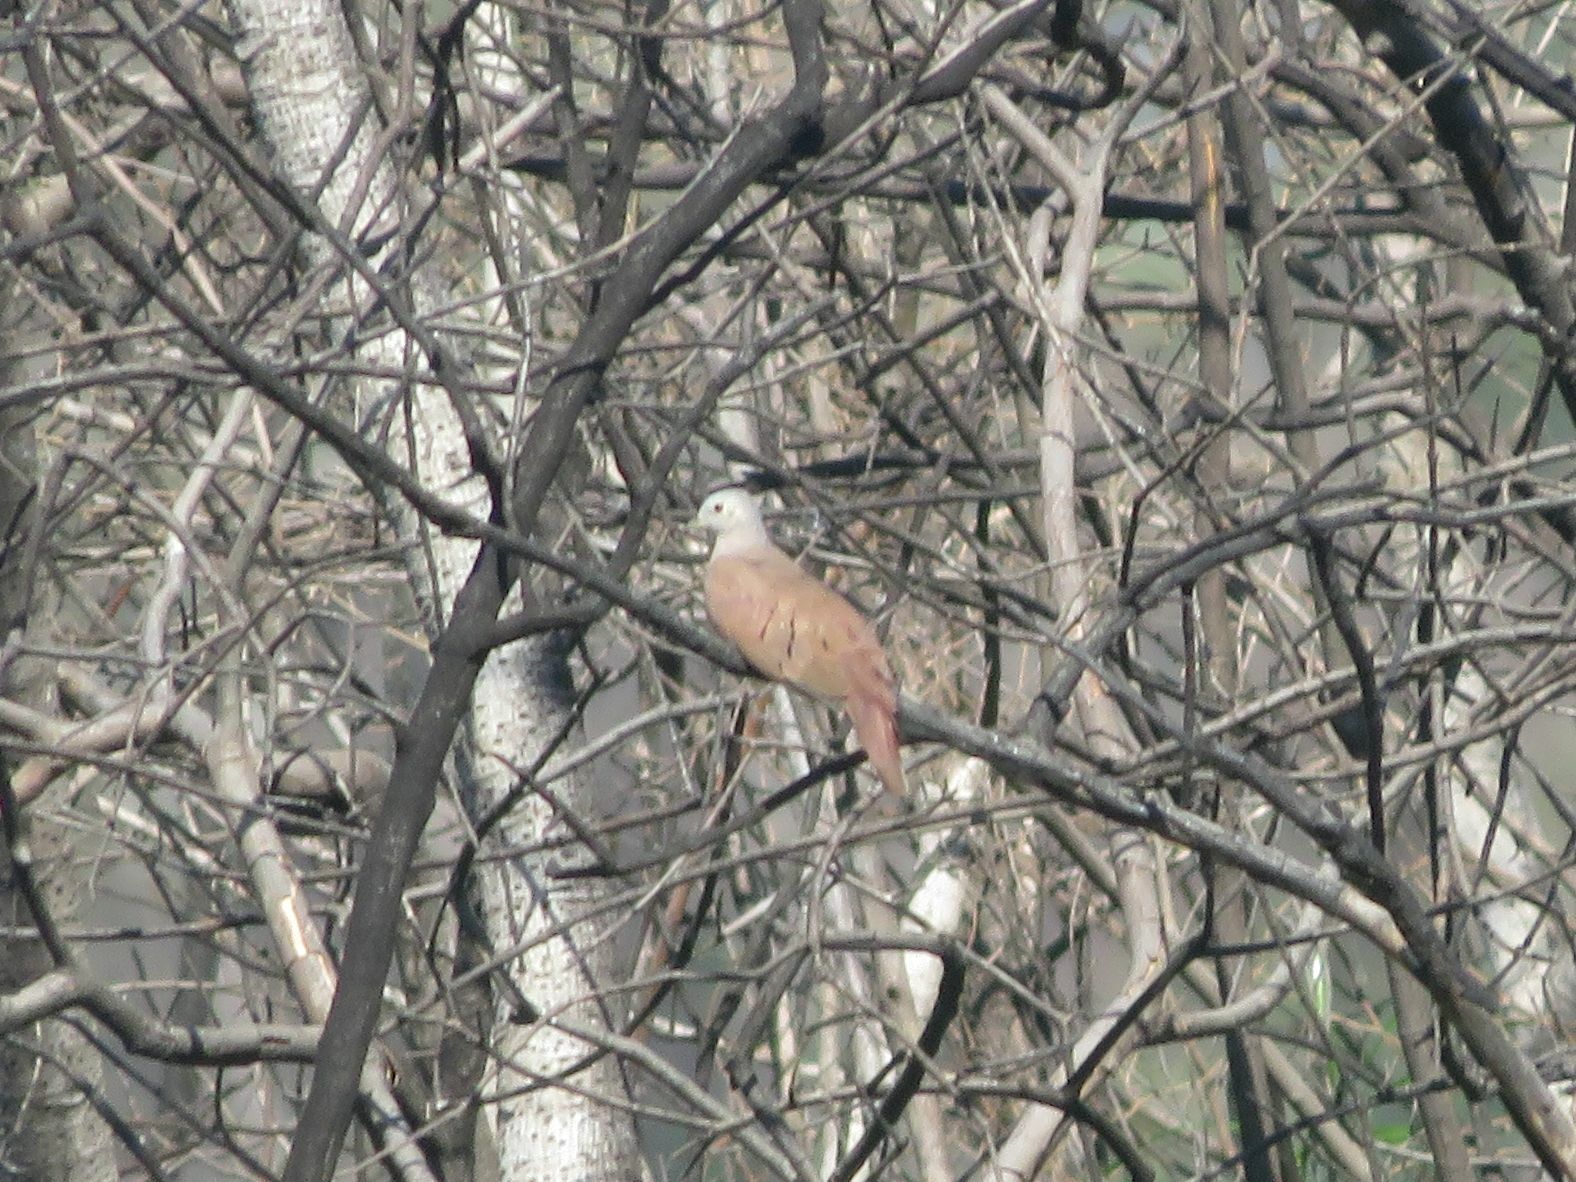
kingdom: Animalia
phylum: Chordata
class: Aves
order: Columbiformes
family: Columbidae
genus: Columbina
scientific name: Columbina talpacoti
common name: Ruddy ground dove
